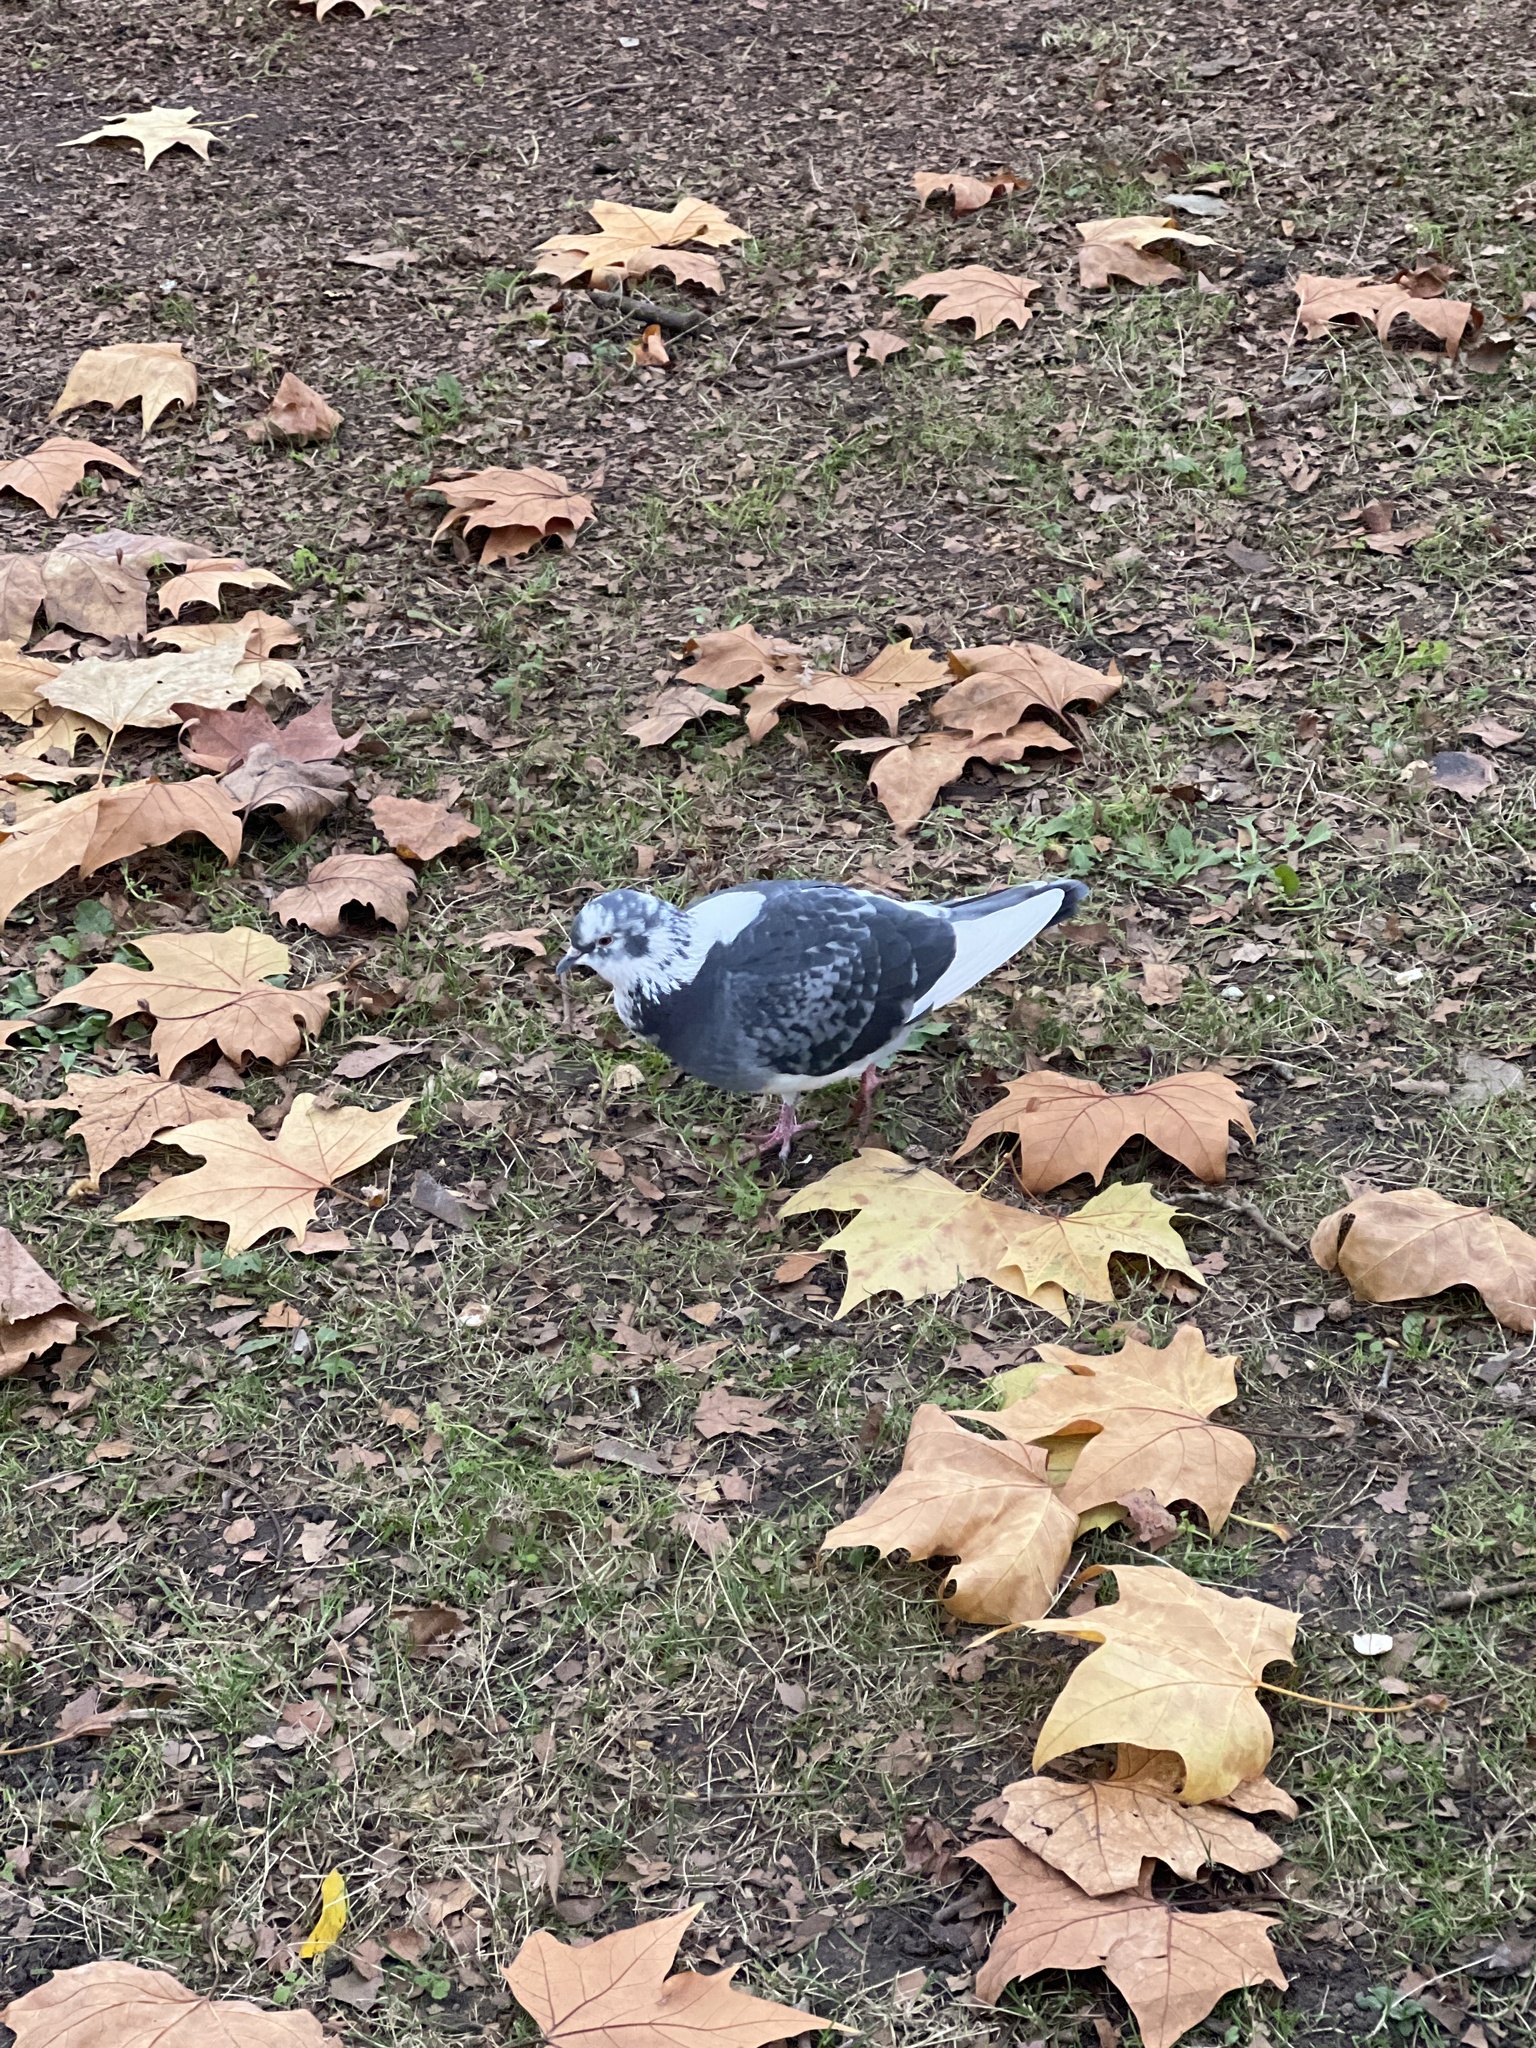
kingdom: Animalia
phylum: Chordata
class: Aves
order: Columbiformes
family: Columbidae
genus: Columba
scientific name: Columba livia
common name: Rock pigeon
